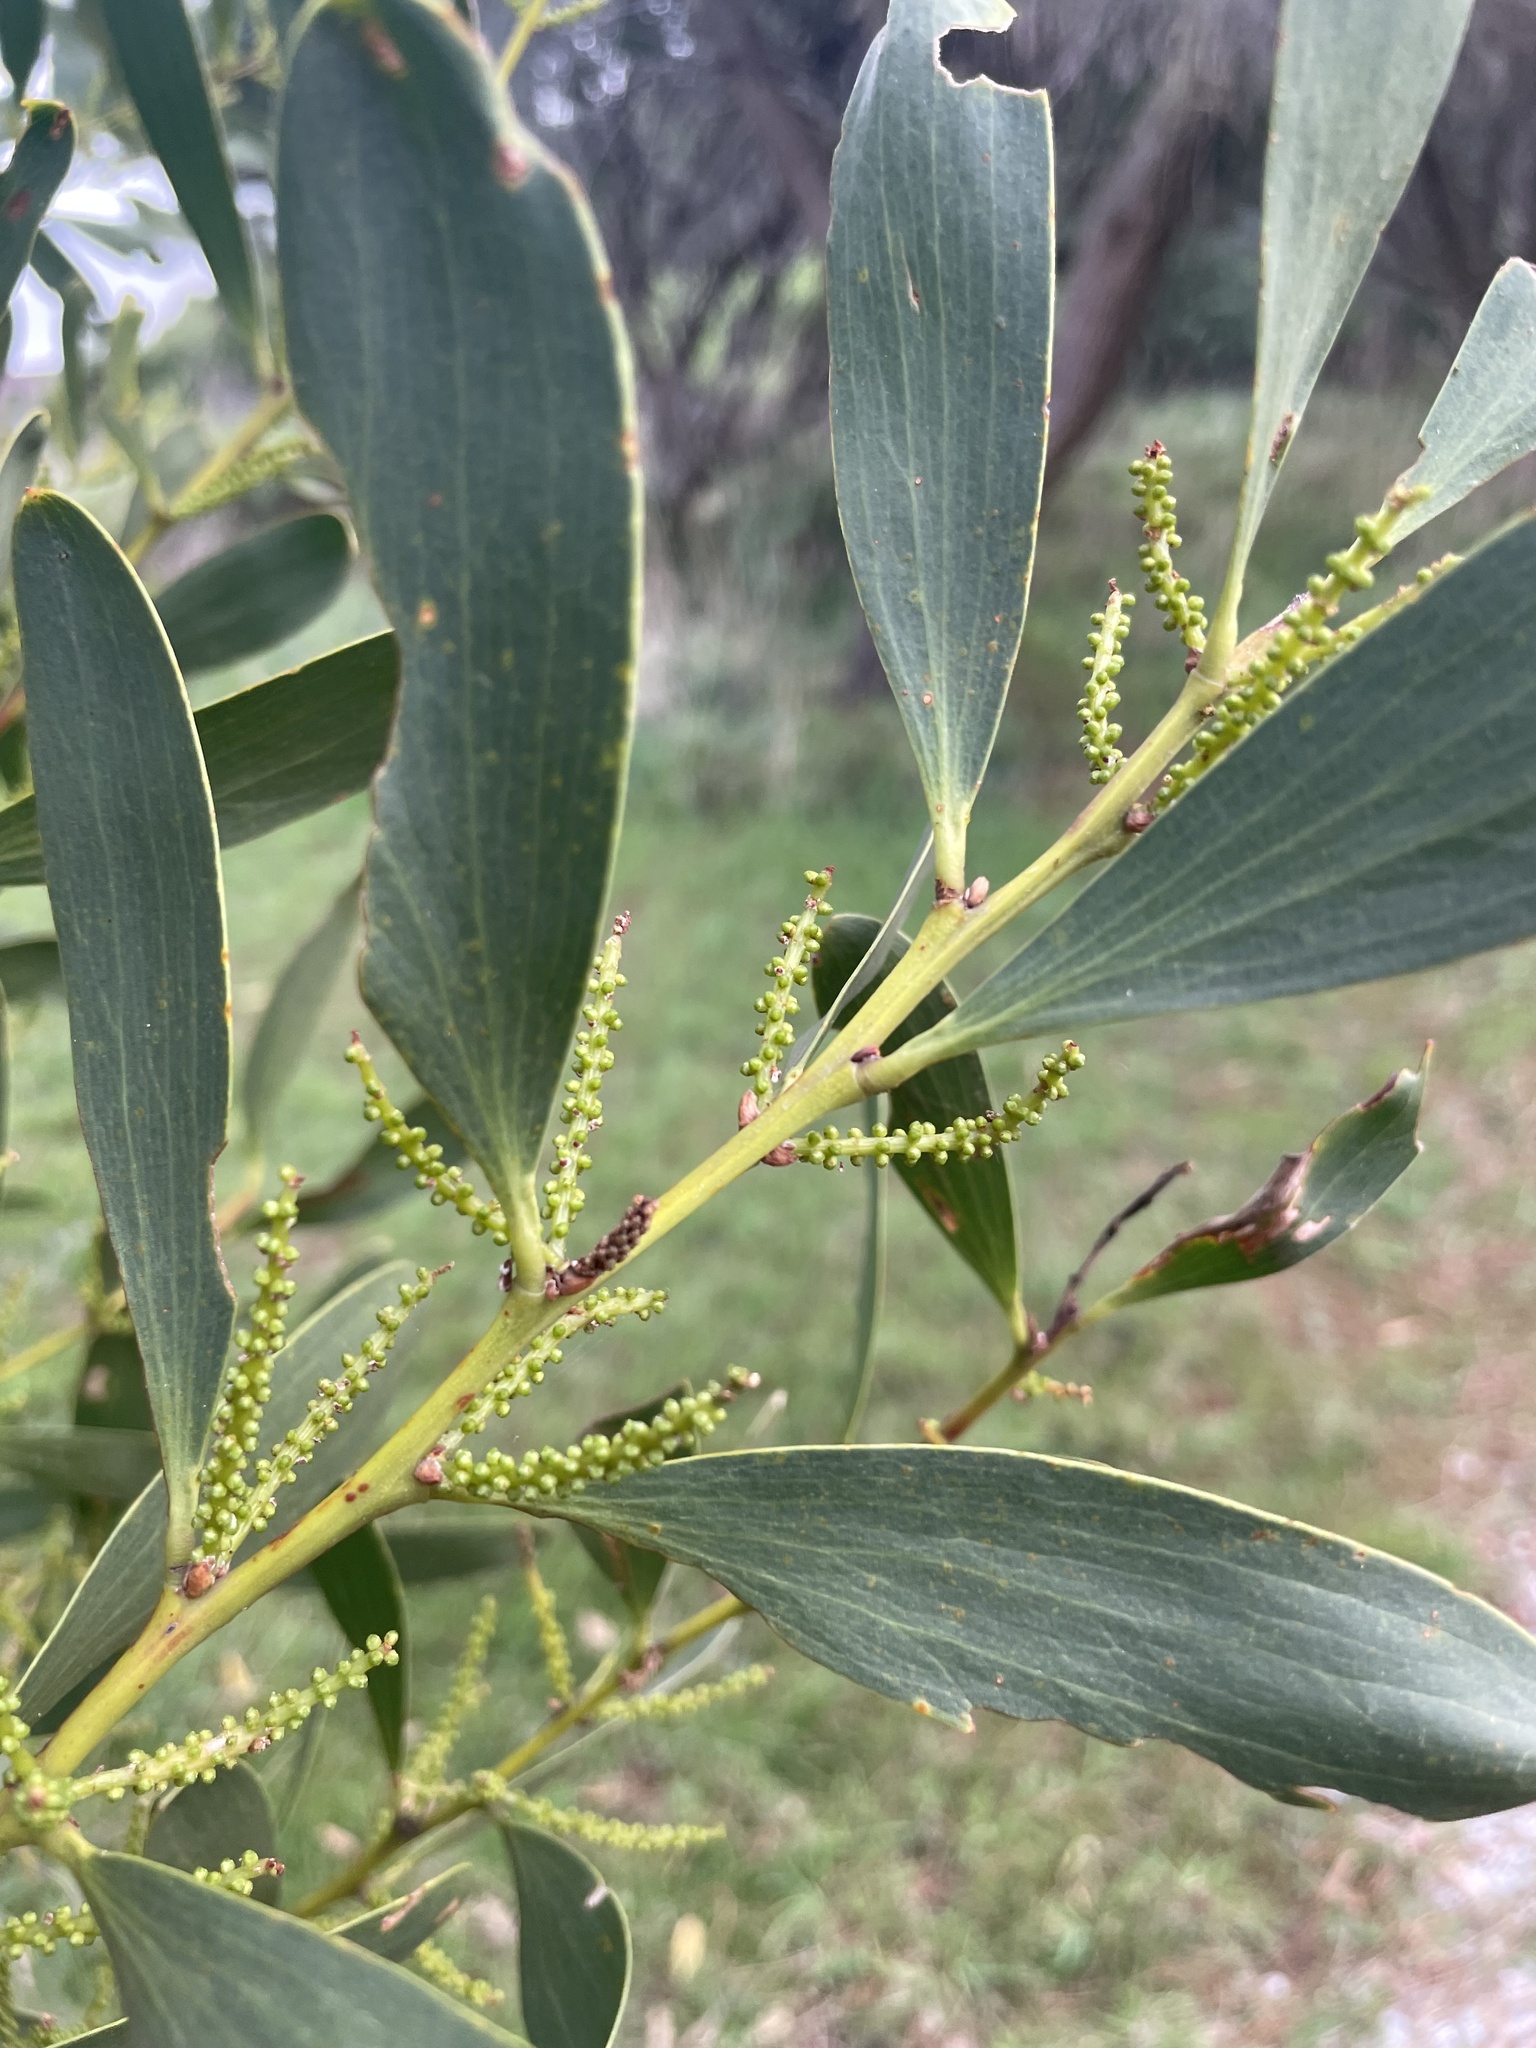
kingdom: Plantae
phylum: Tracheophyta
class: Magnoliopsida
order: Fabales
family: Fabaceae
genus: Acacia
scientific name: Acacia longifolia
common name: Sydney golden wattle
